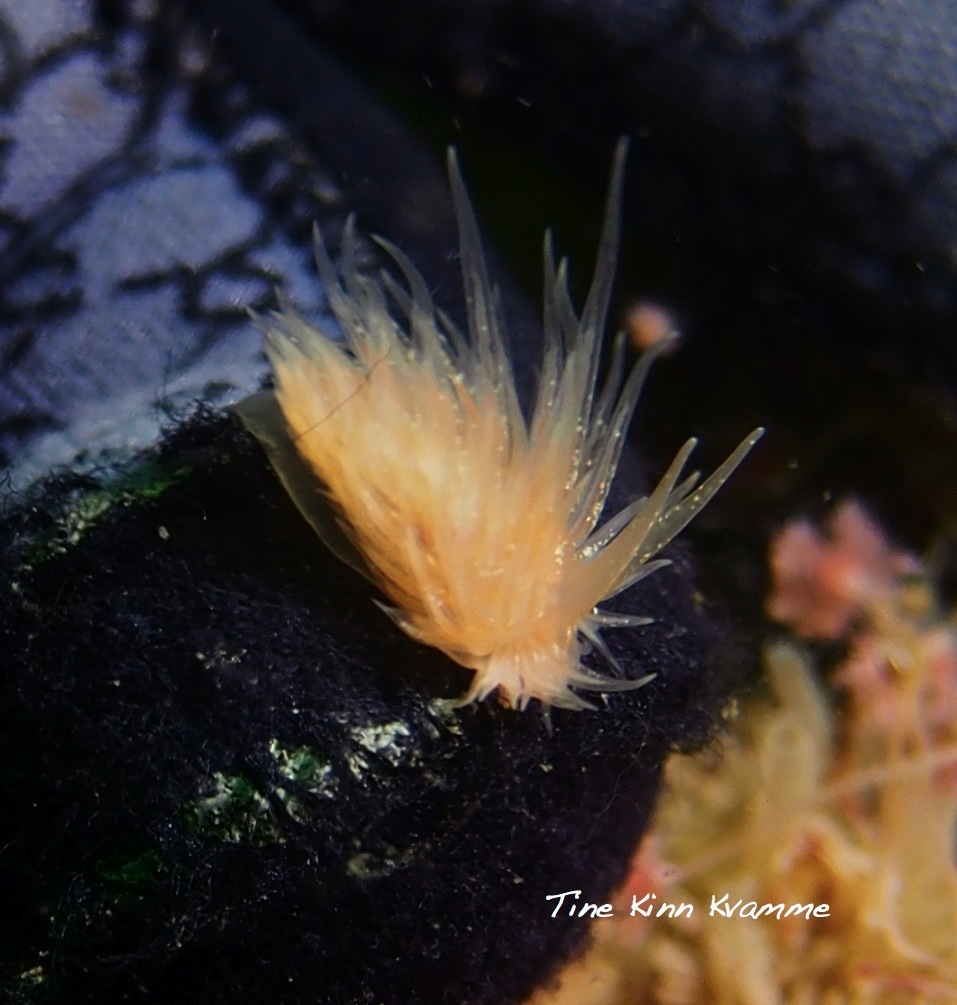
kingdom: Animalia
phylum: Mollusca
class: Gastropoda
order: Nudibranchia
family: Cumanotidae
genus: Cumanotus
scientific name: Cumanotus beaumonti
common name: Polyp aeolis
